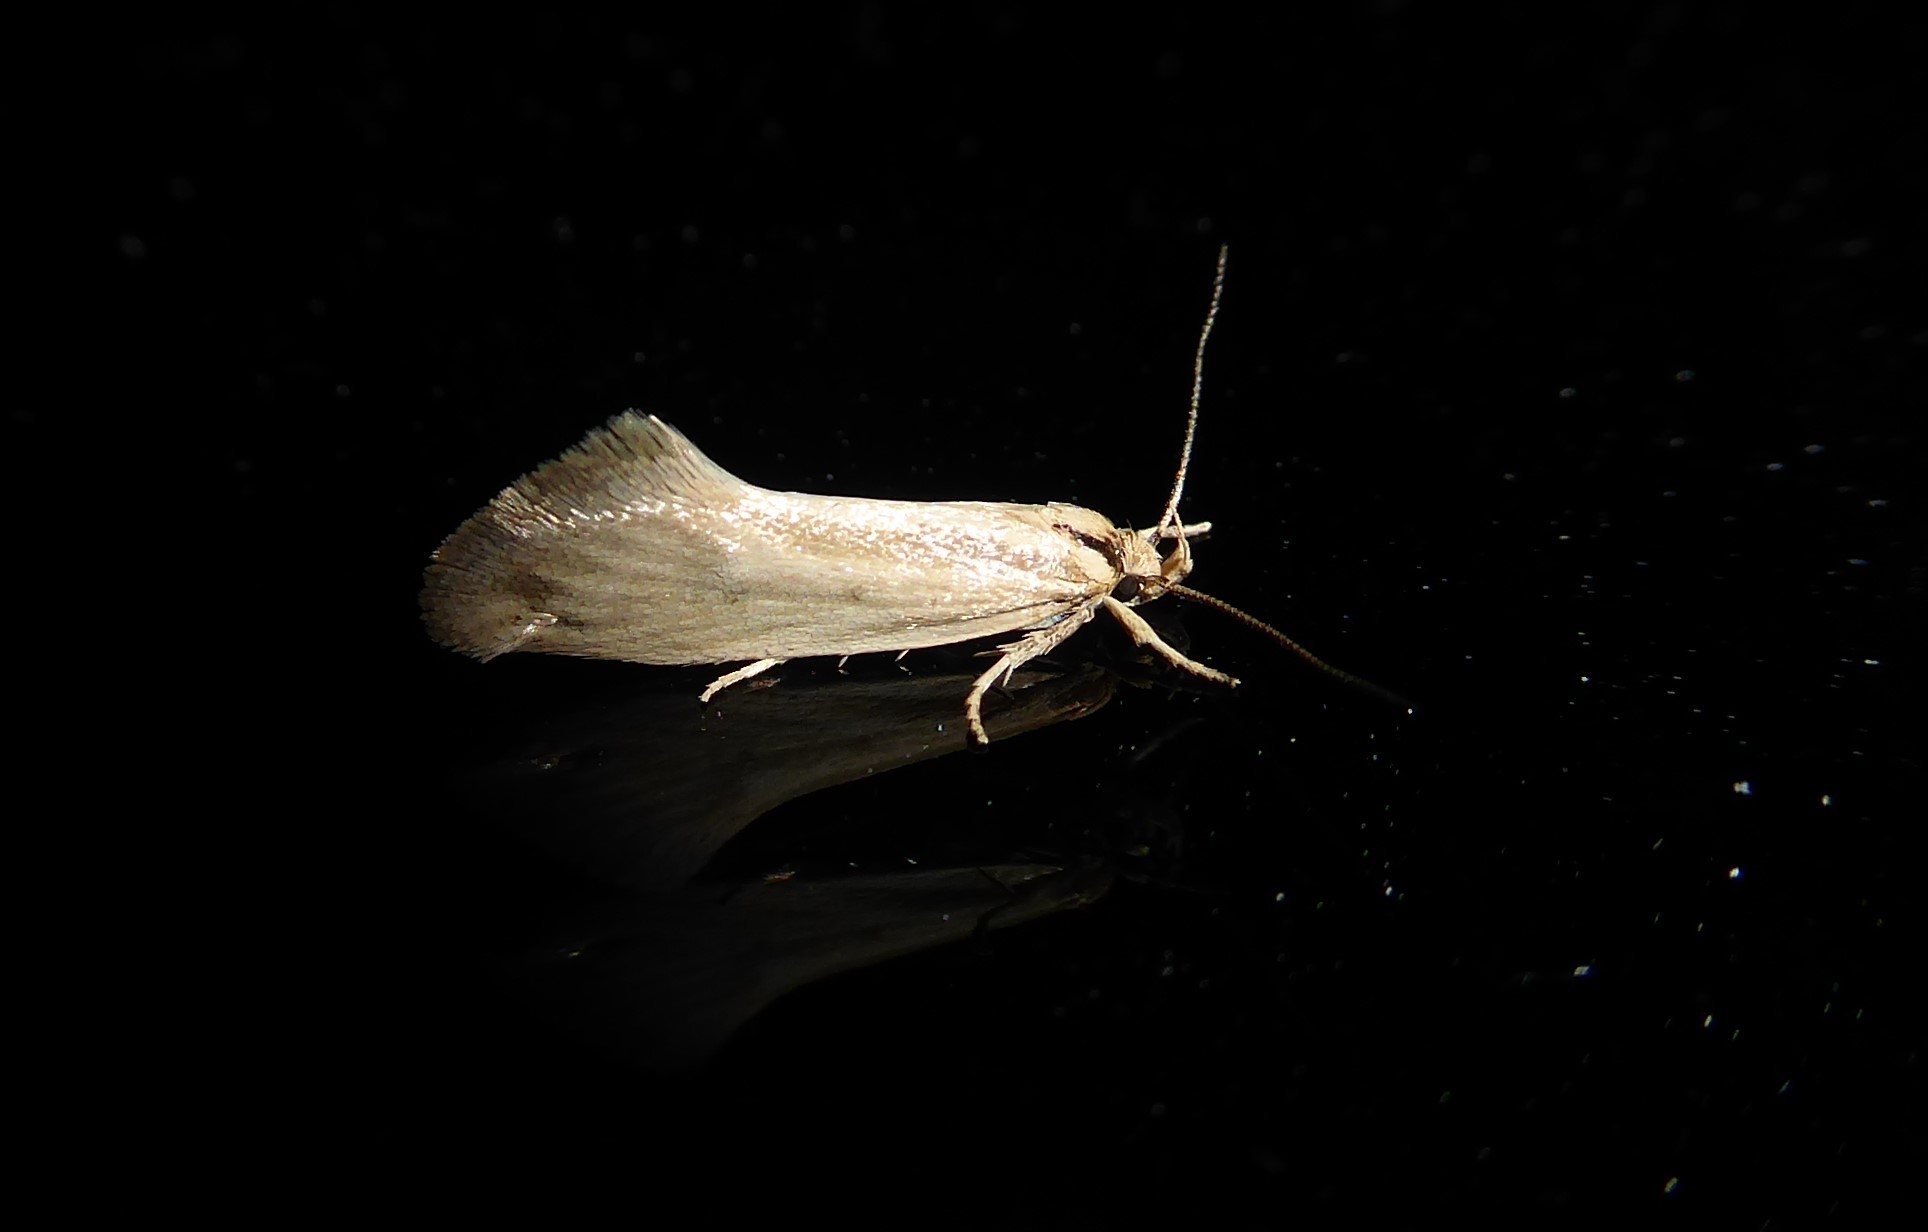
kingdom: Animalia
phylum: Arthropoda
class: Insecta
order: Lepidoptera
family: Oecophoridae
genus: Tingena
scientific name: Tingena chloradelpha
